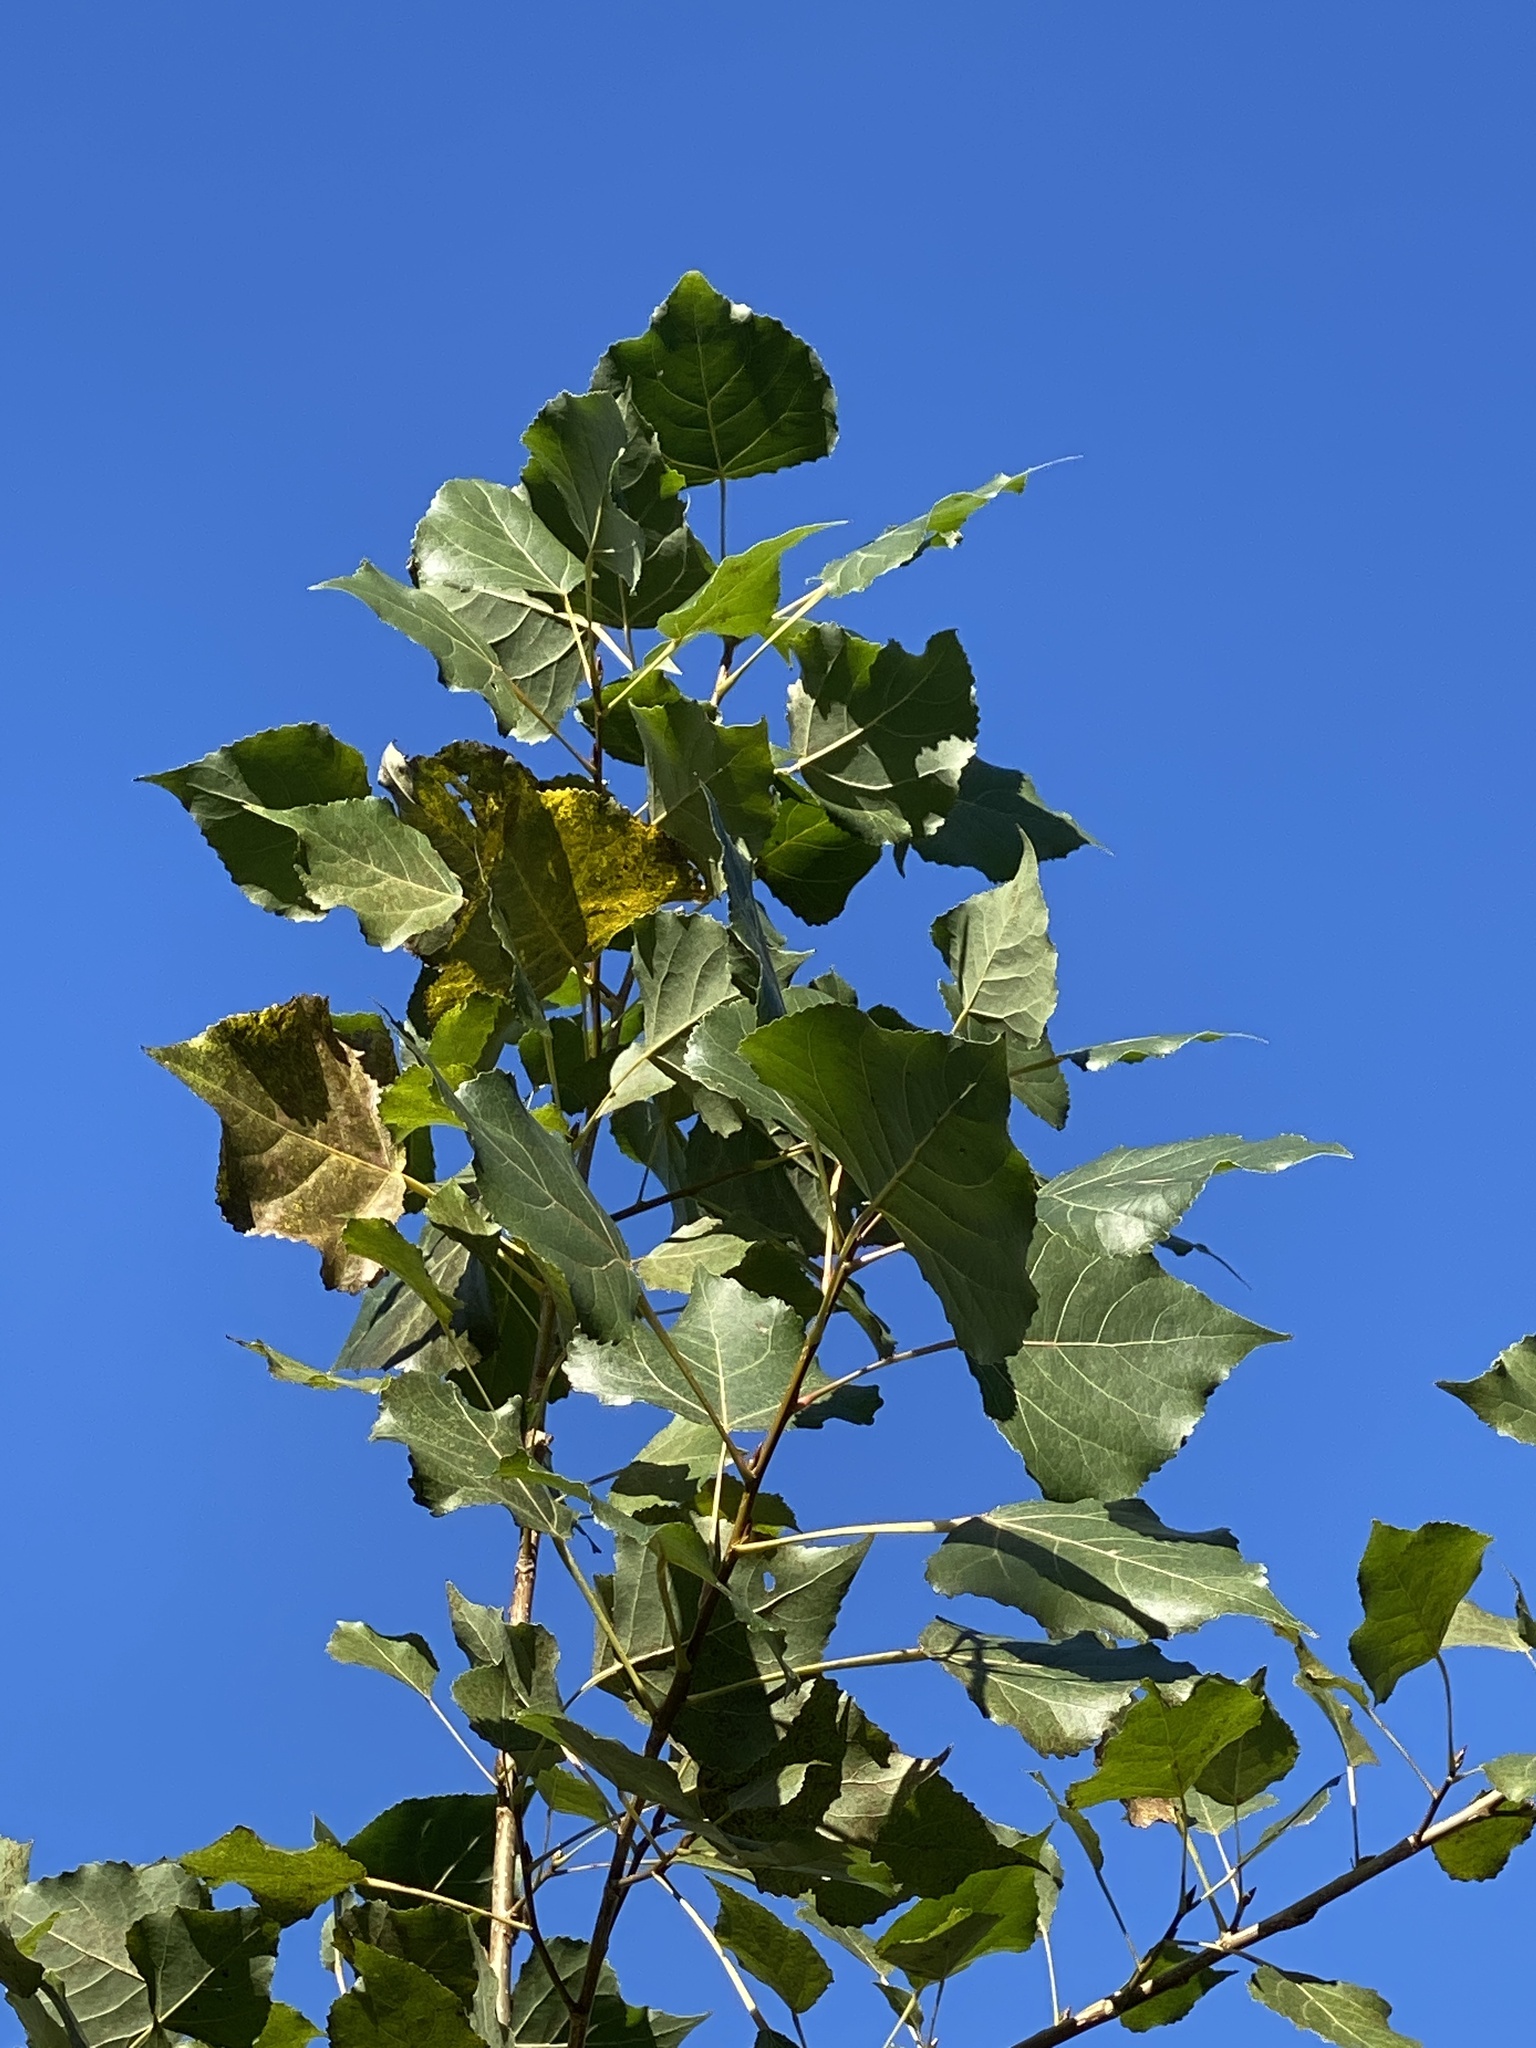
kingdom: Plantae
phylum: Tracheophyta
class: Magnoliopsida
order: Malpighiales
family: Salicaceae
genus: Populus
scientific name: Populus deltoides
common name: Eastern cottonwood
